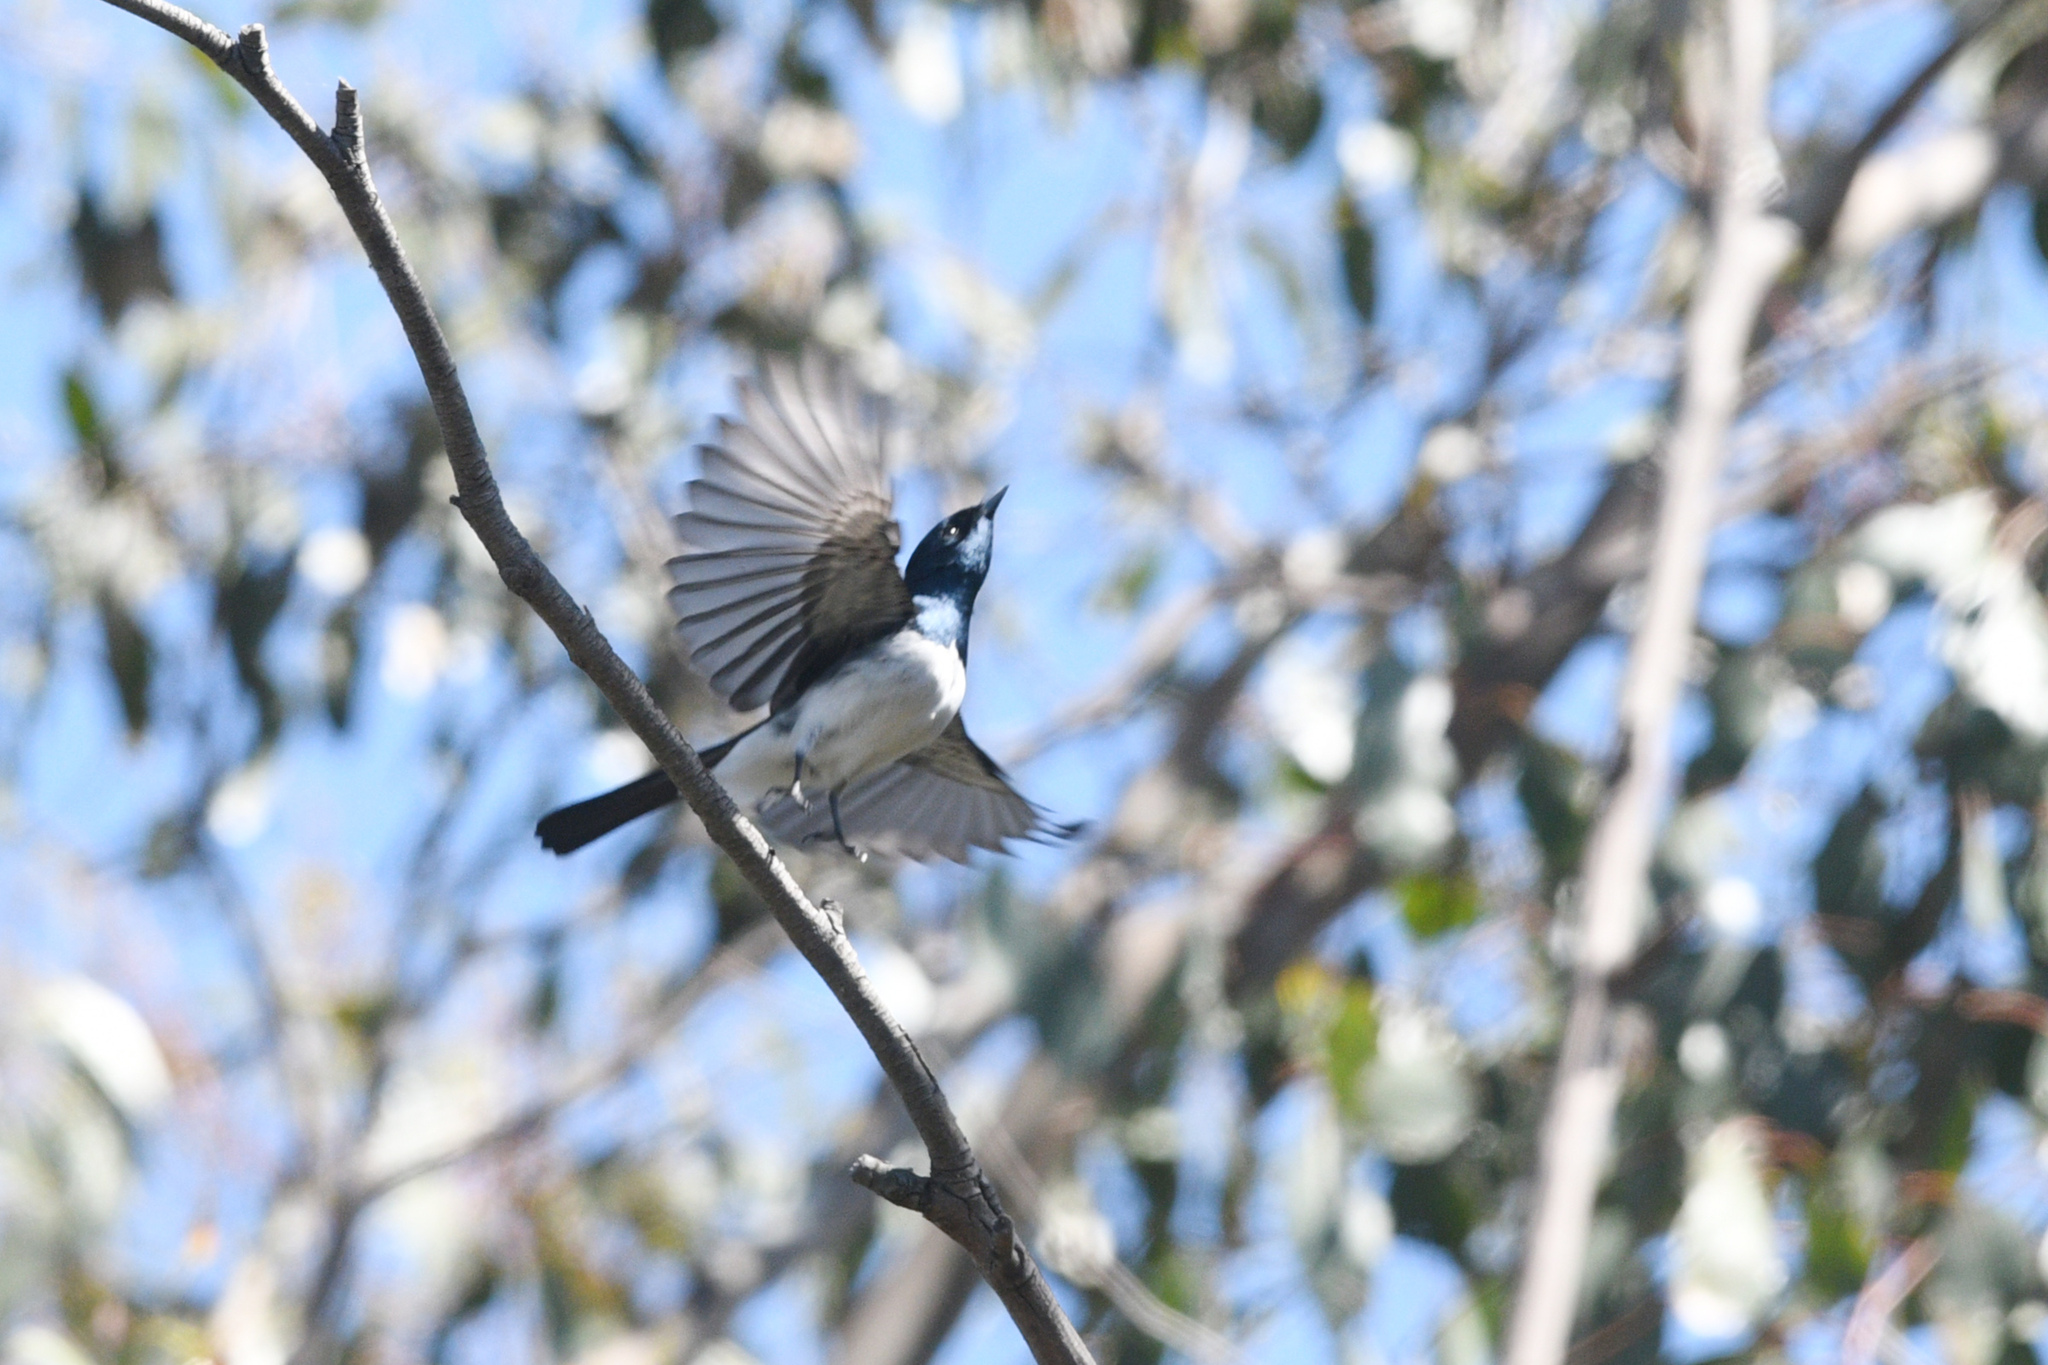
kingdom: Animalia
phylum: Chordata
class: Aves
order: Passeriformes
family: Monarchidae
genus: Myiagra
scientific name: Myiagra cyanoleuca
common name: Satin flycatcher
